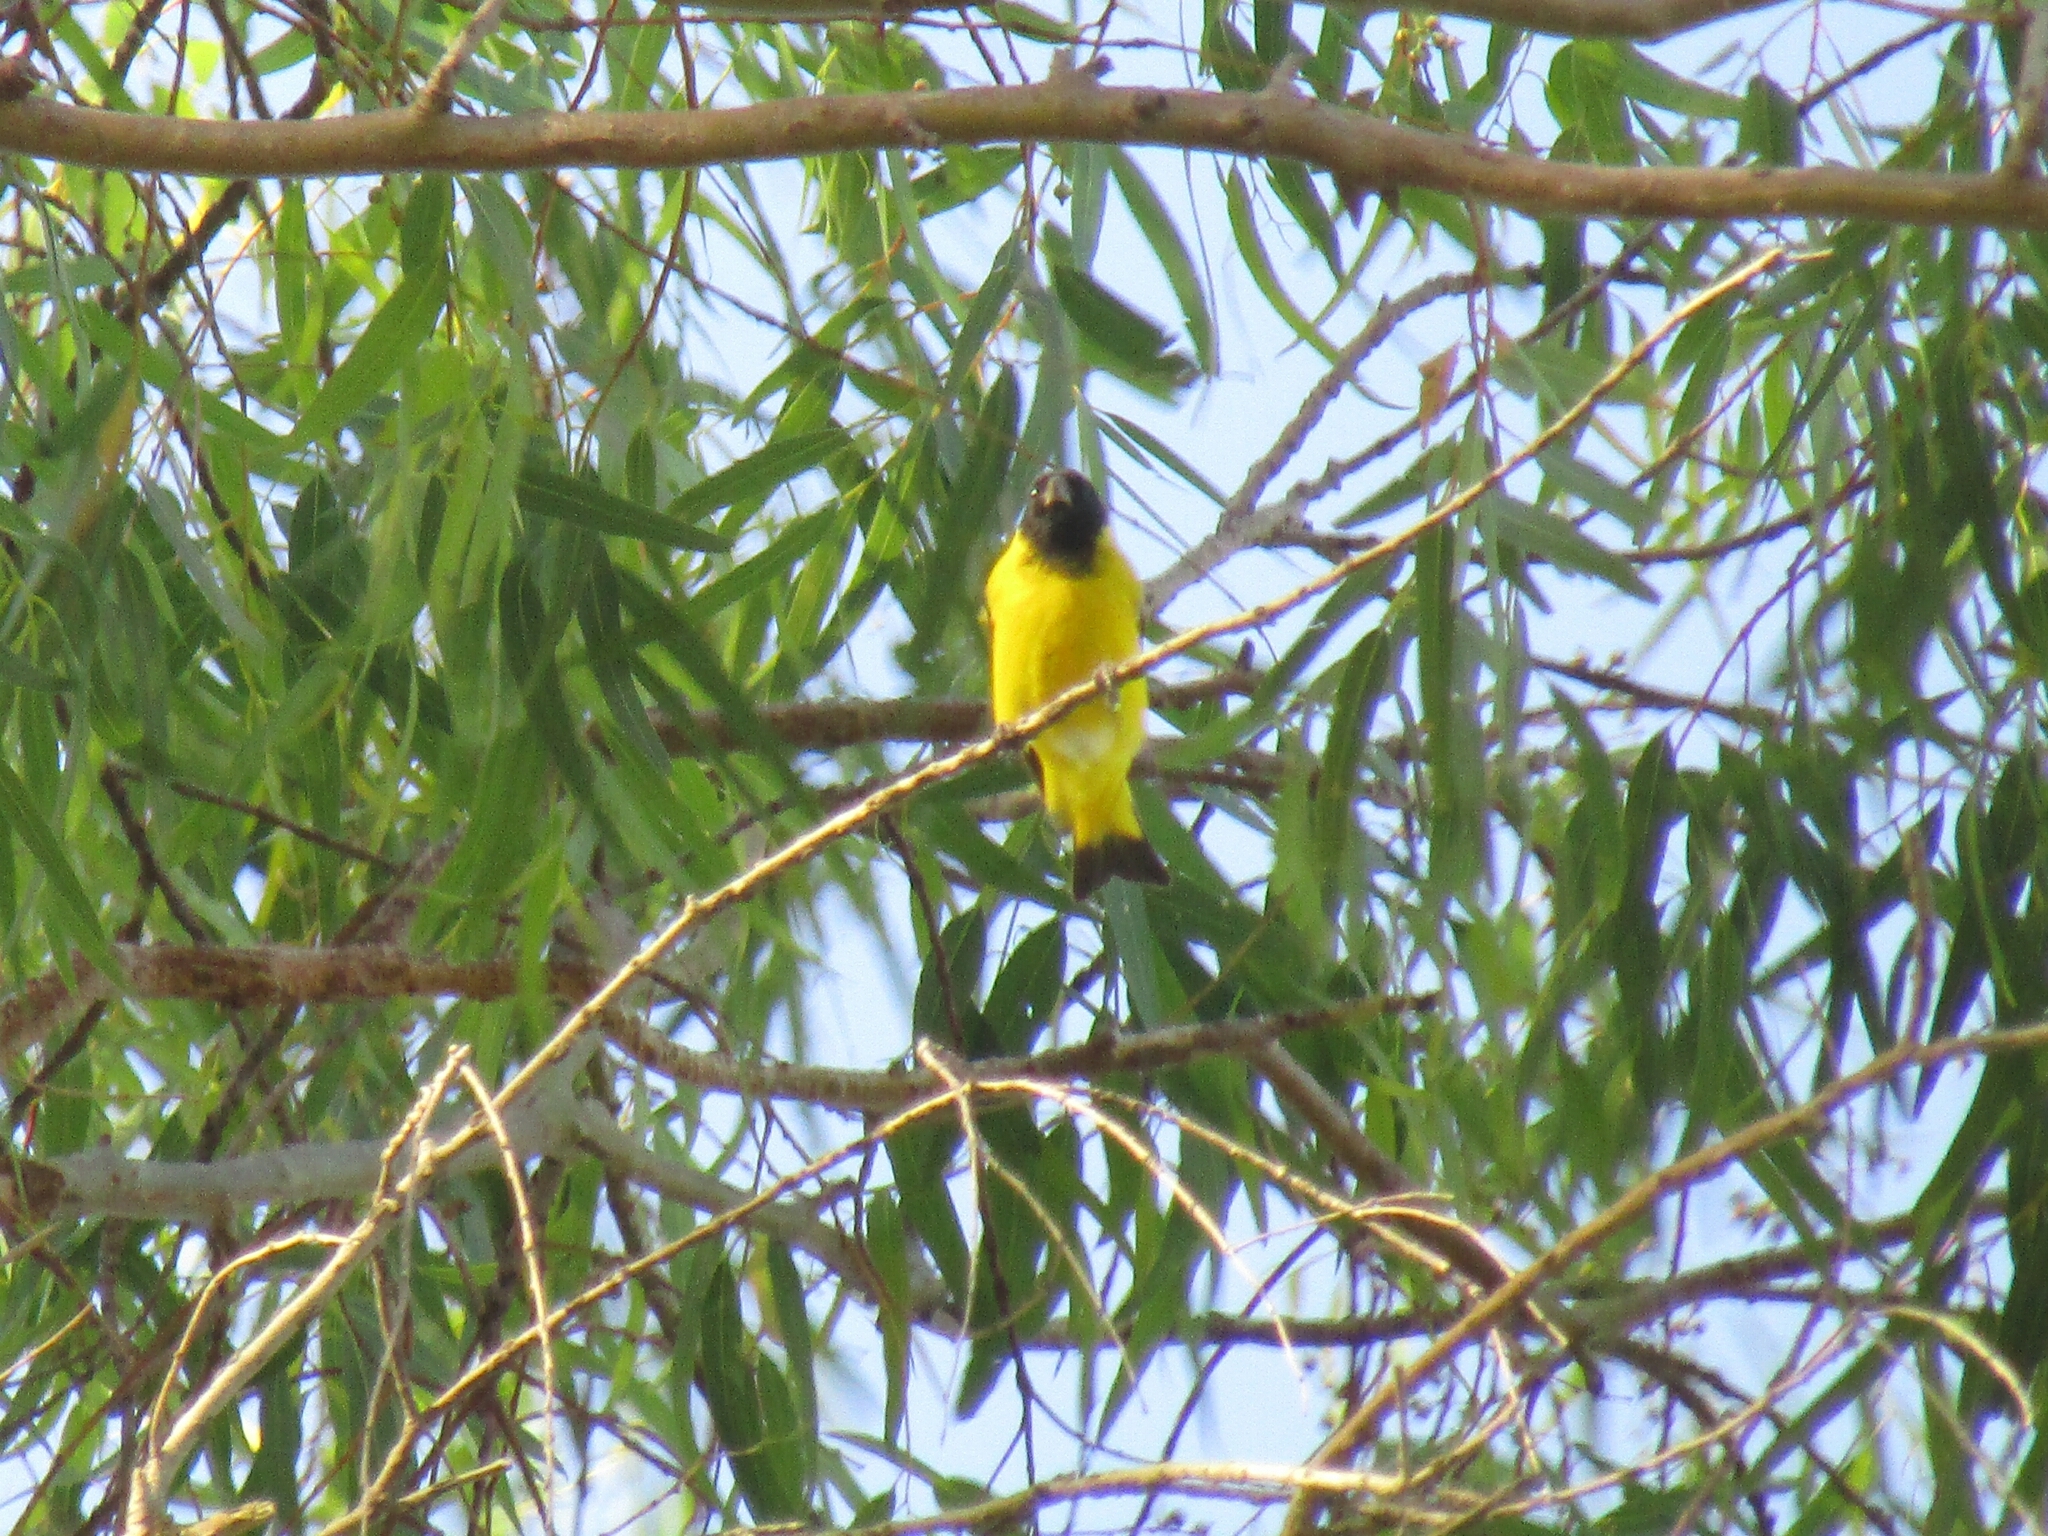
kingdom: Animalia
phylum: Chordata
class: Aves
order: Passeriformes
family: Fringillidae
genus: Spinus
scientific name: Spinus magellanicus
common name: Hooded siskin
